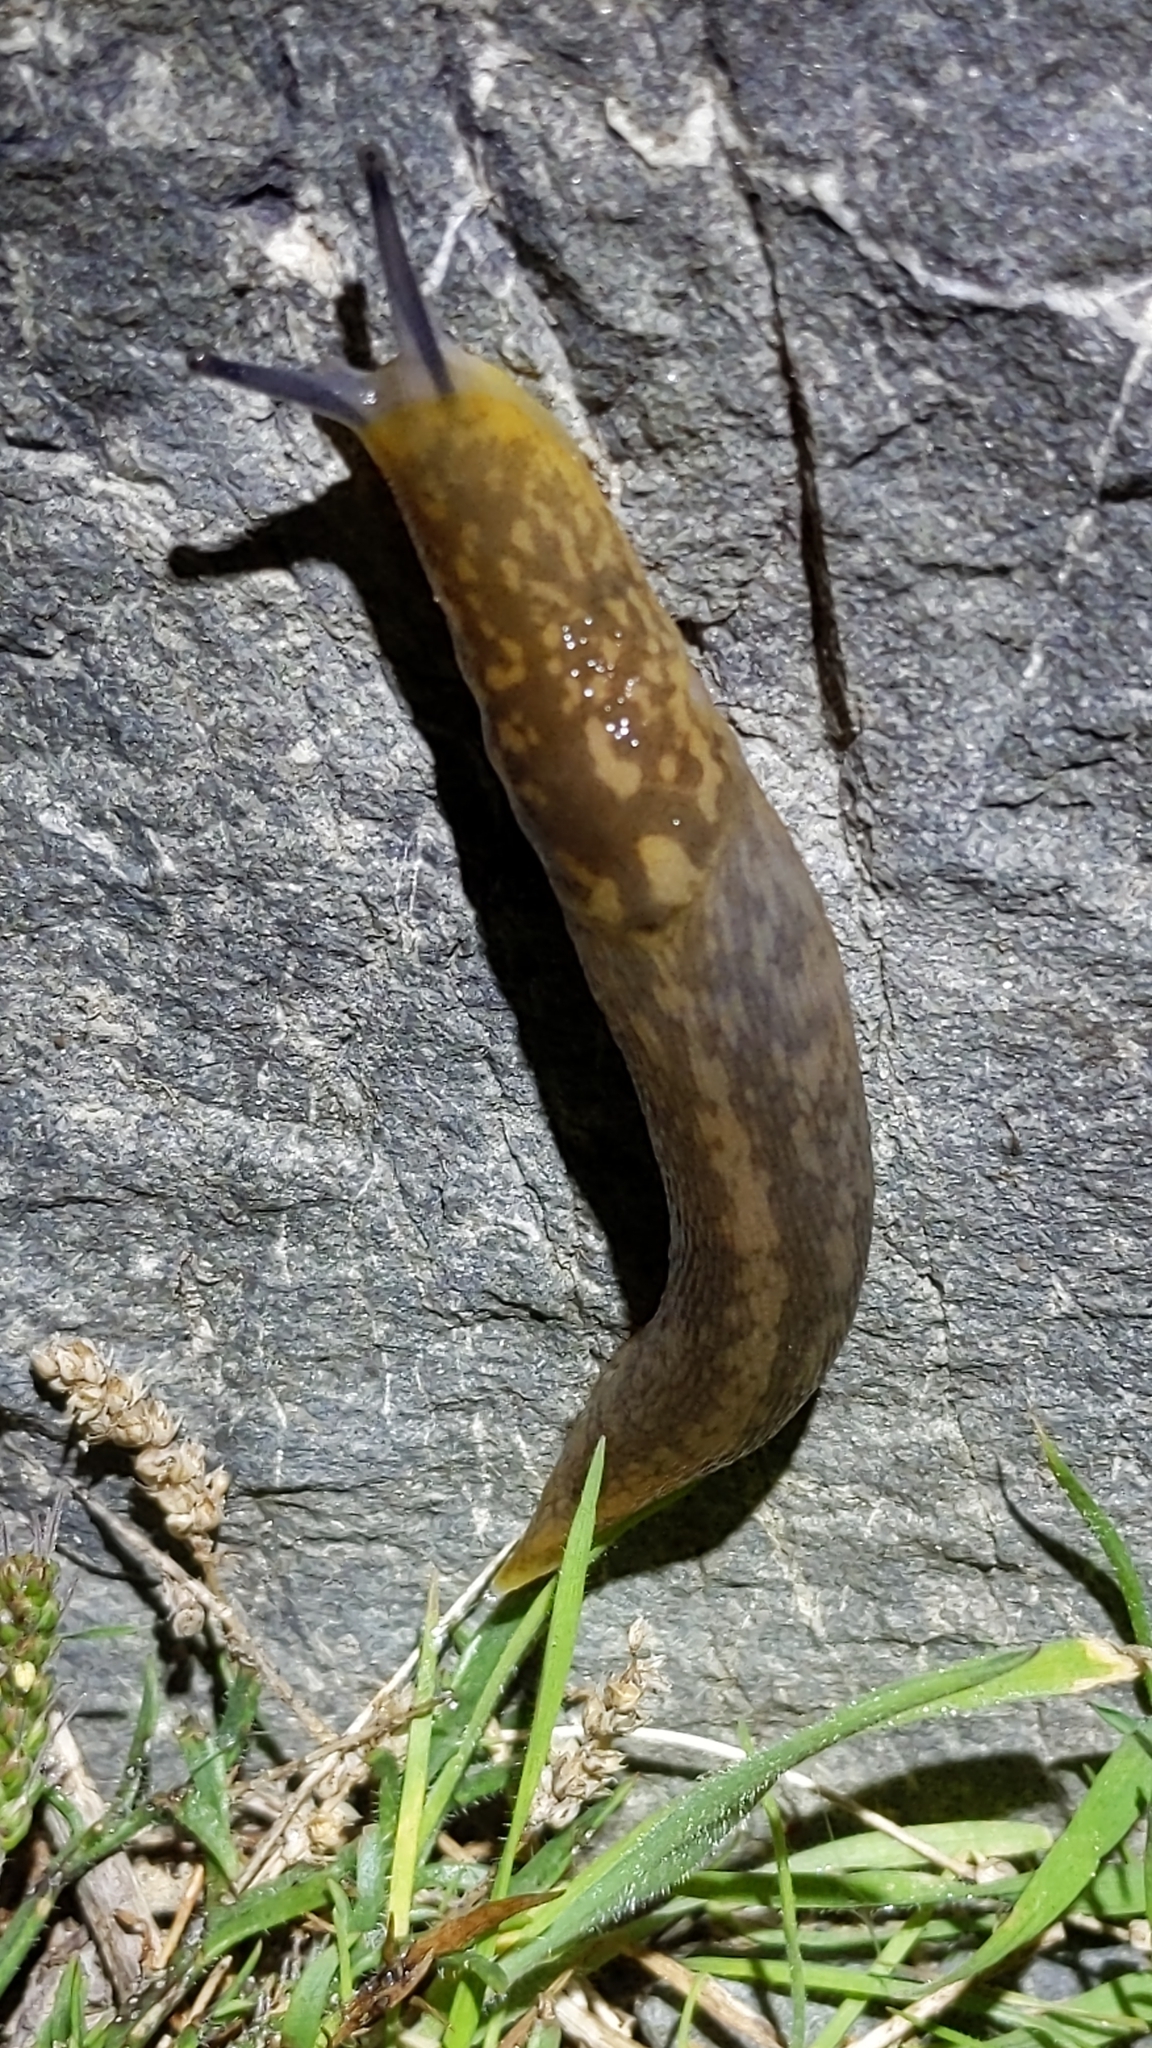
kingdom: Animalia
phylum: Mollusca
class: Gastropoda
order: Stylommatophora
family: Limacidae
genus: Limacus
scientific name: Limacus flavus
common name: Yellow gardenslug
